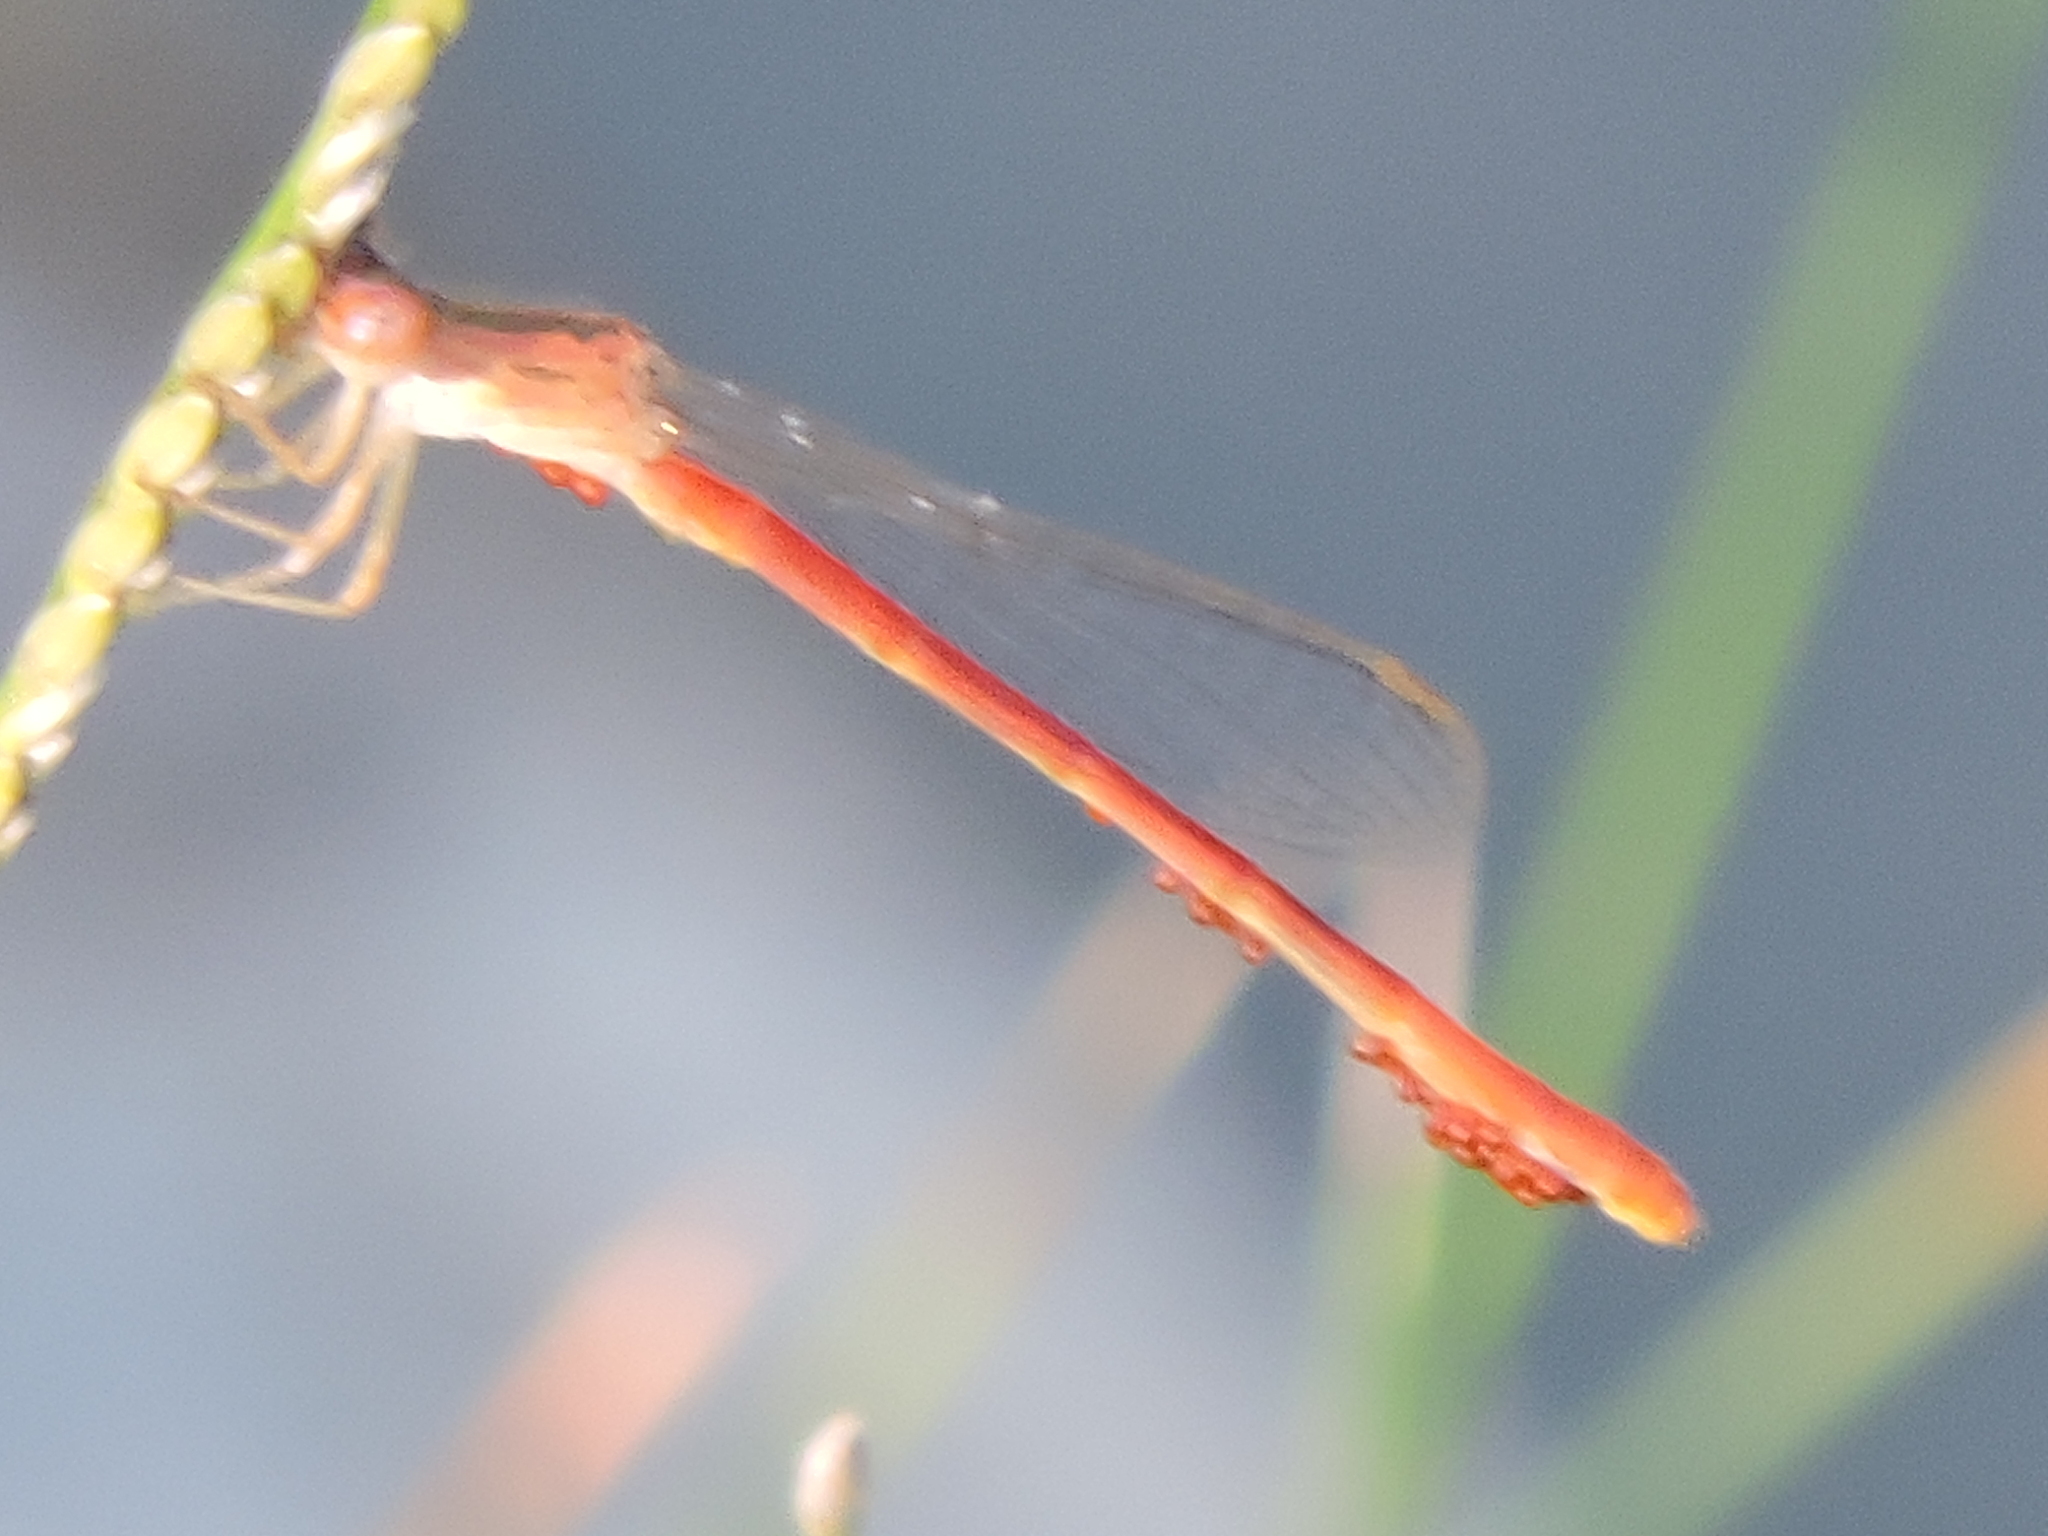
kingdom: Animalia
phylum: Arthropoda
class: Insecta
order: Odonata
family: Coenagrionidae
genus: Telebasis
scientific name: Telebasis salva
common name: Desert firetail
